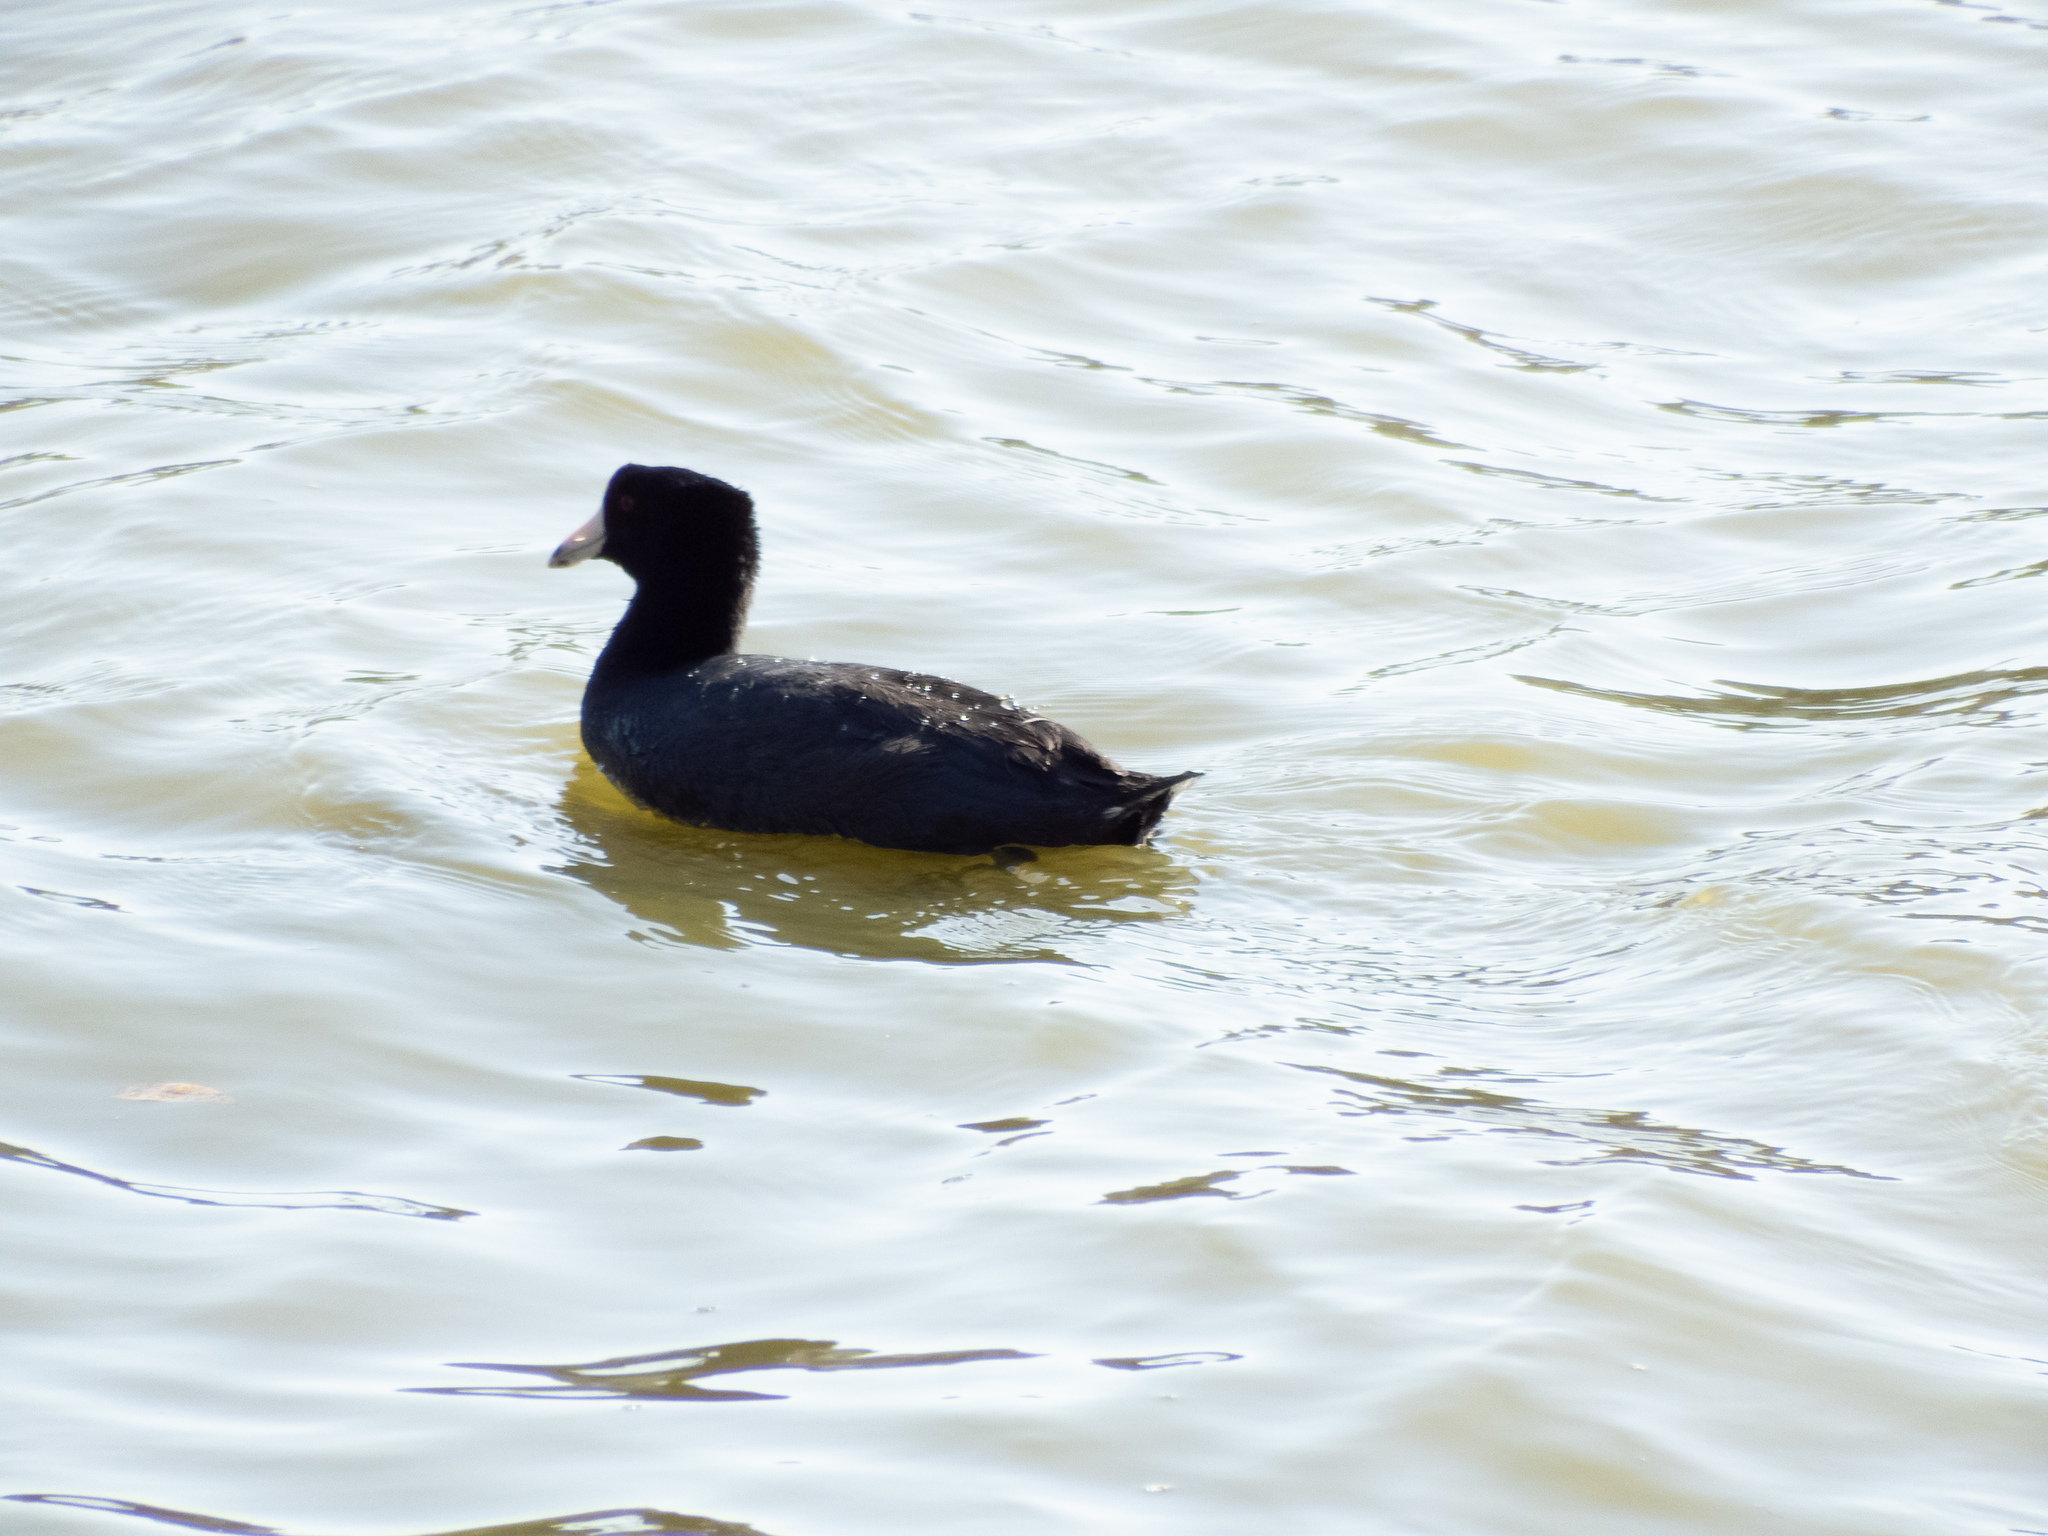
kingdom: Animalia
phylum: Chordata
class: Aves
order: Gruiformes
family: Rallidae
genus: Fulica
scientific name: Fulica americana
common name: American coot
